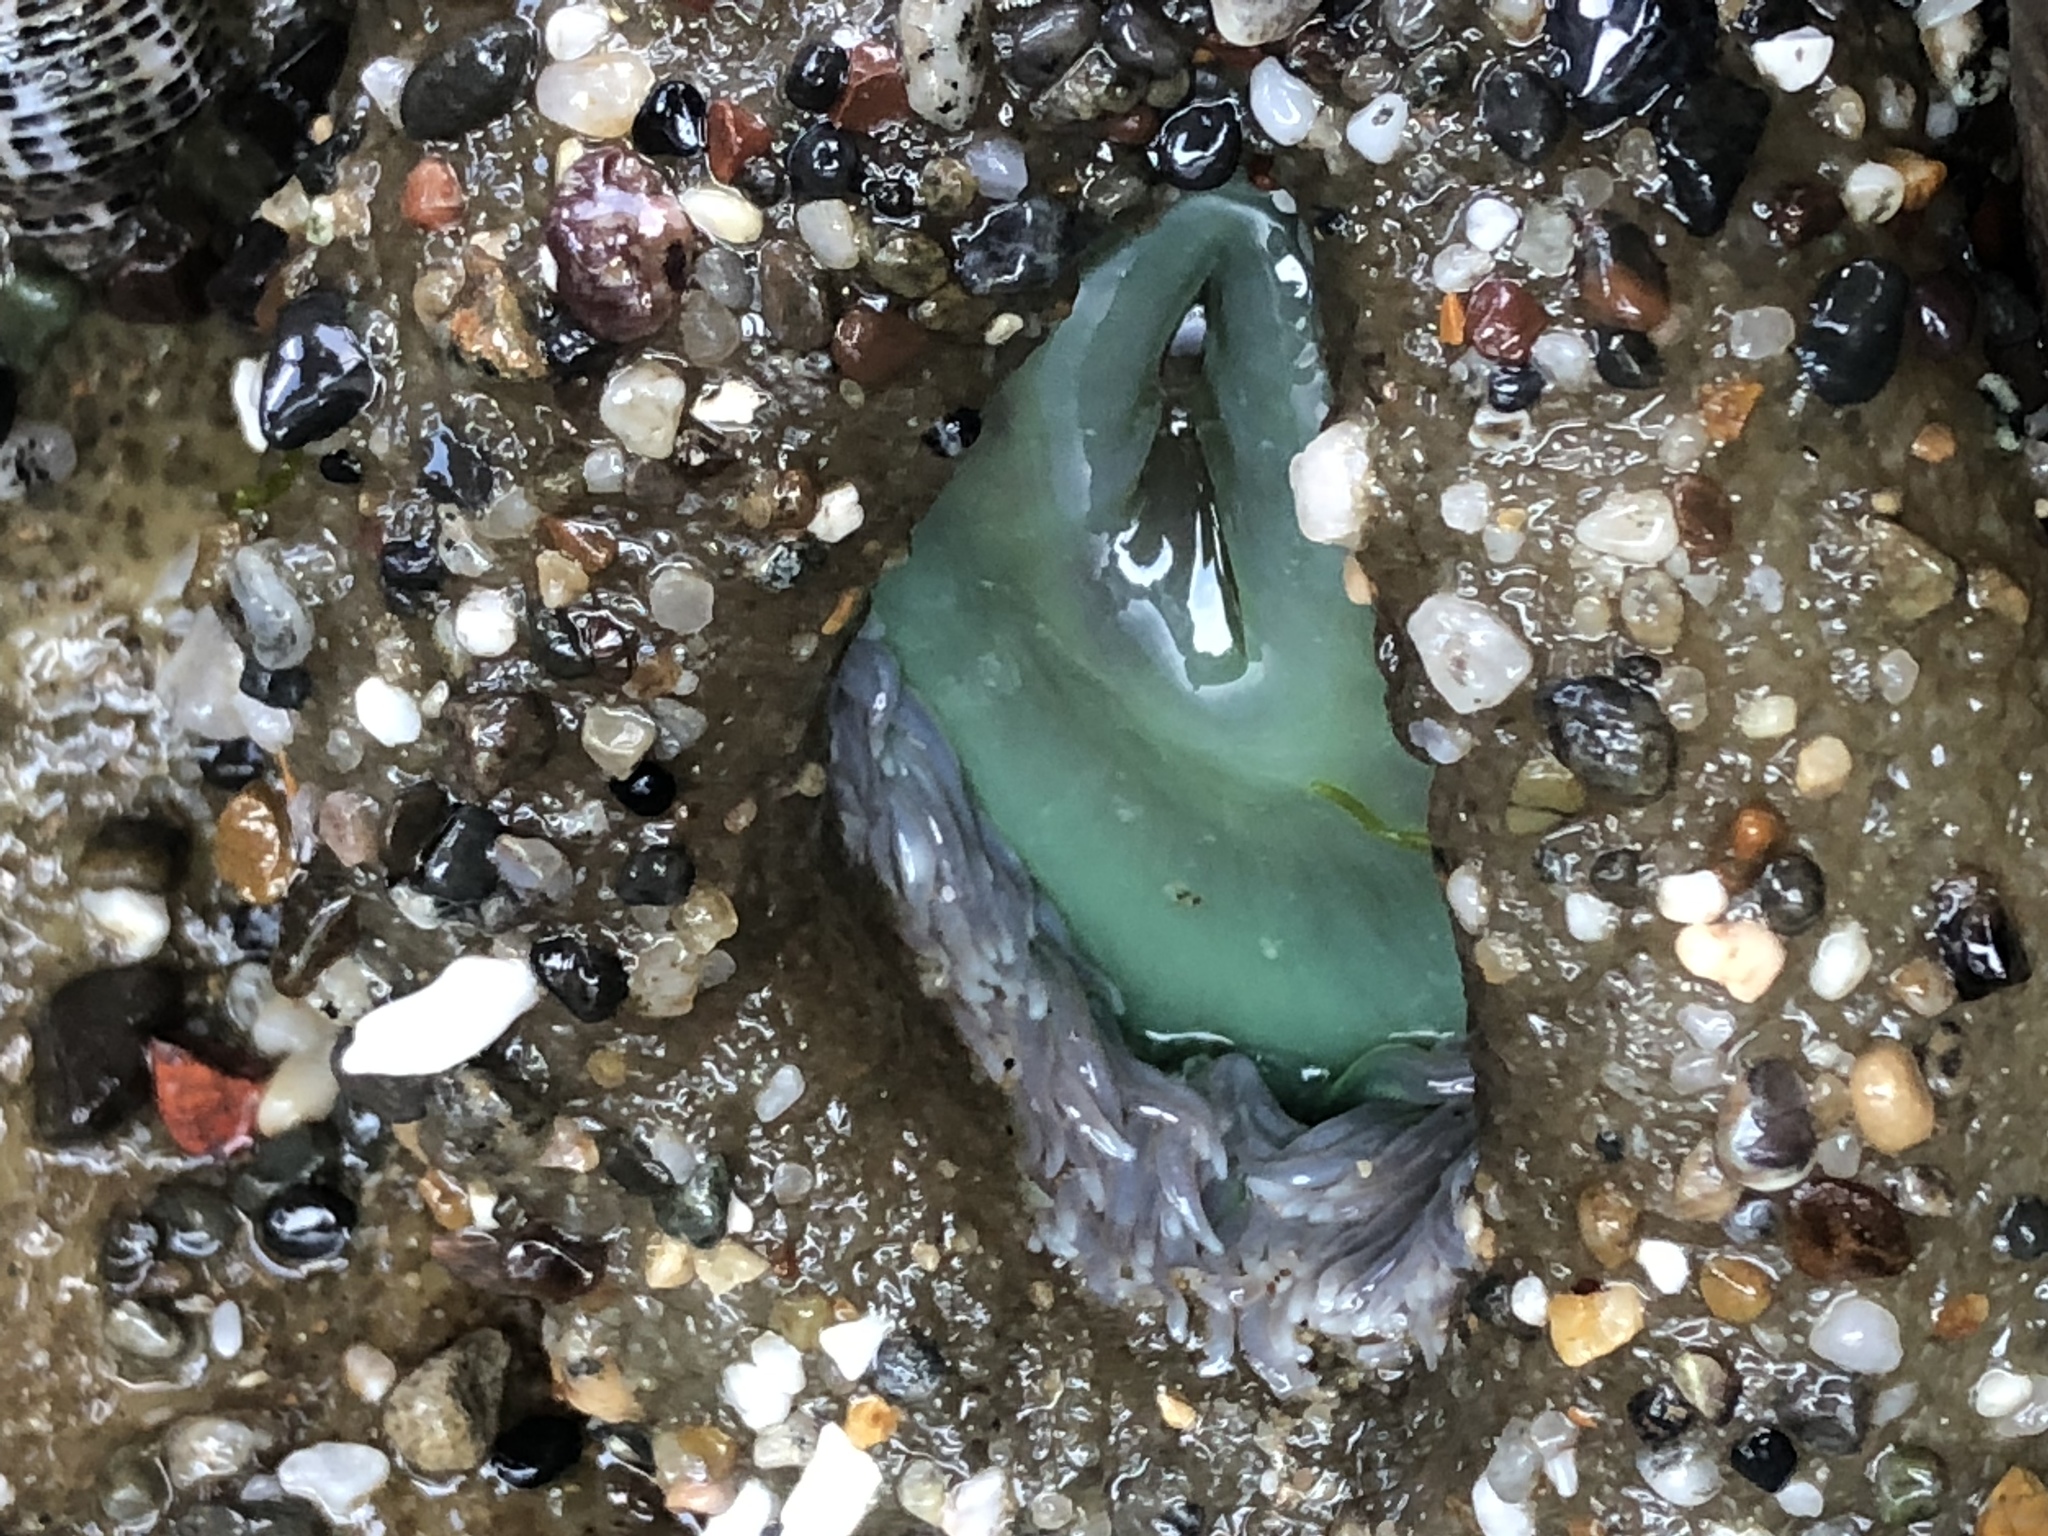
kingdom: Animalia
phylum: Cnidaria
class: Anthozoa
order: Actiniaria
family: Actiniidae
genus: Anthopleura
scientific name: Anthopleura xanthogrammica
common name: Giant green anemone
